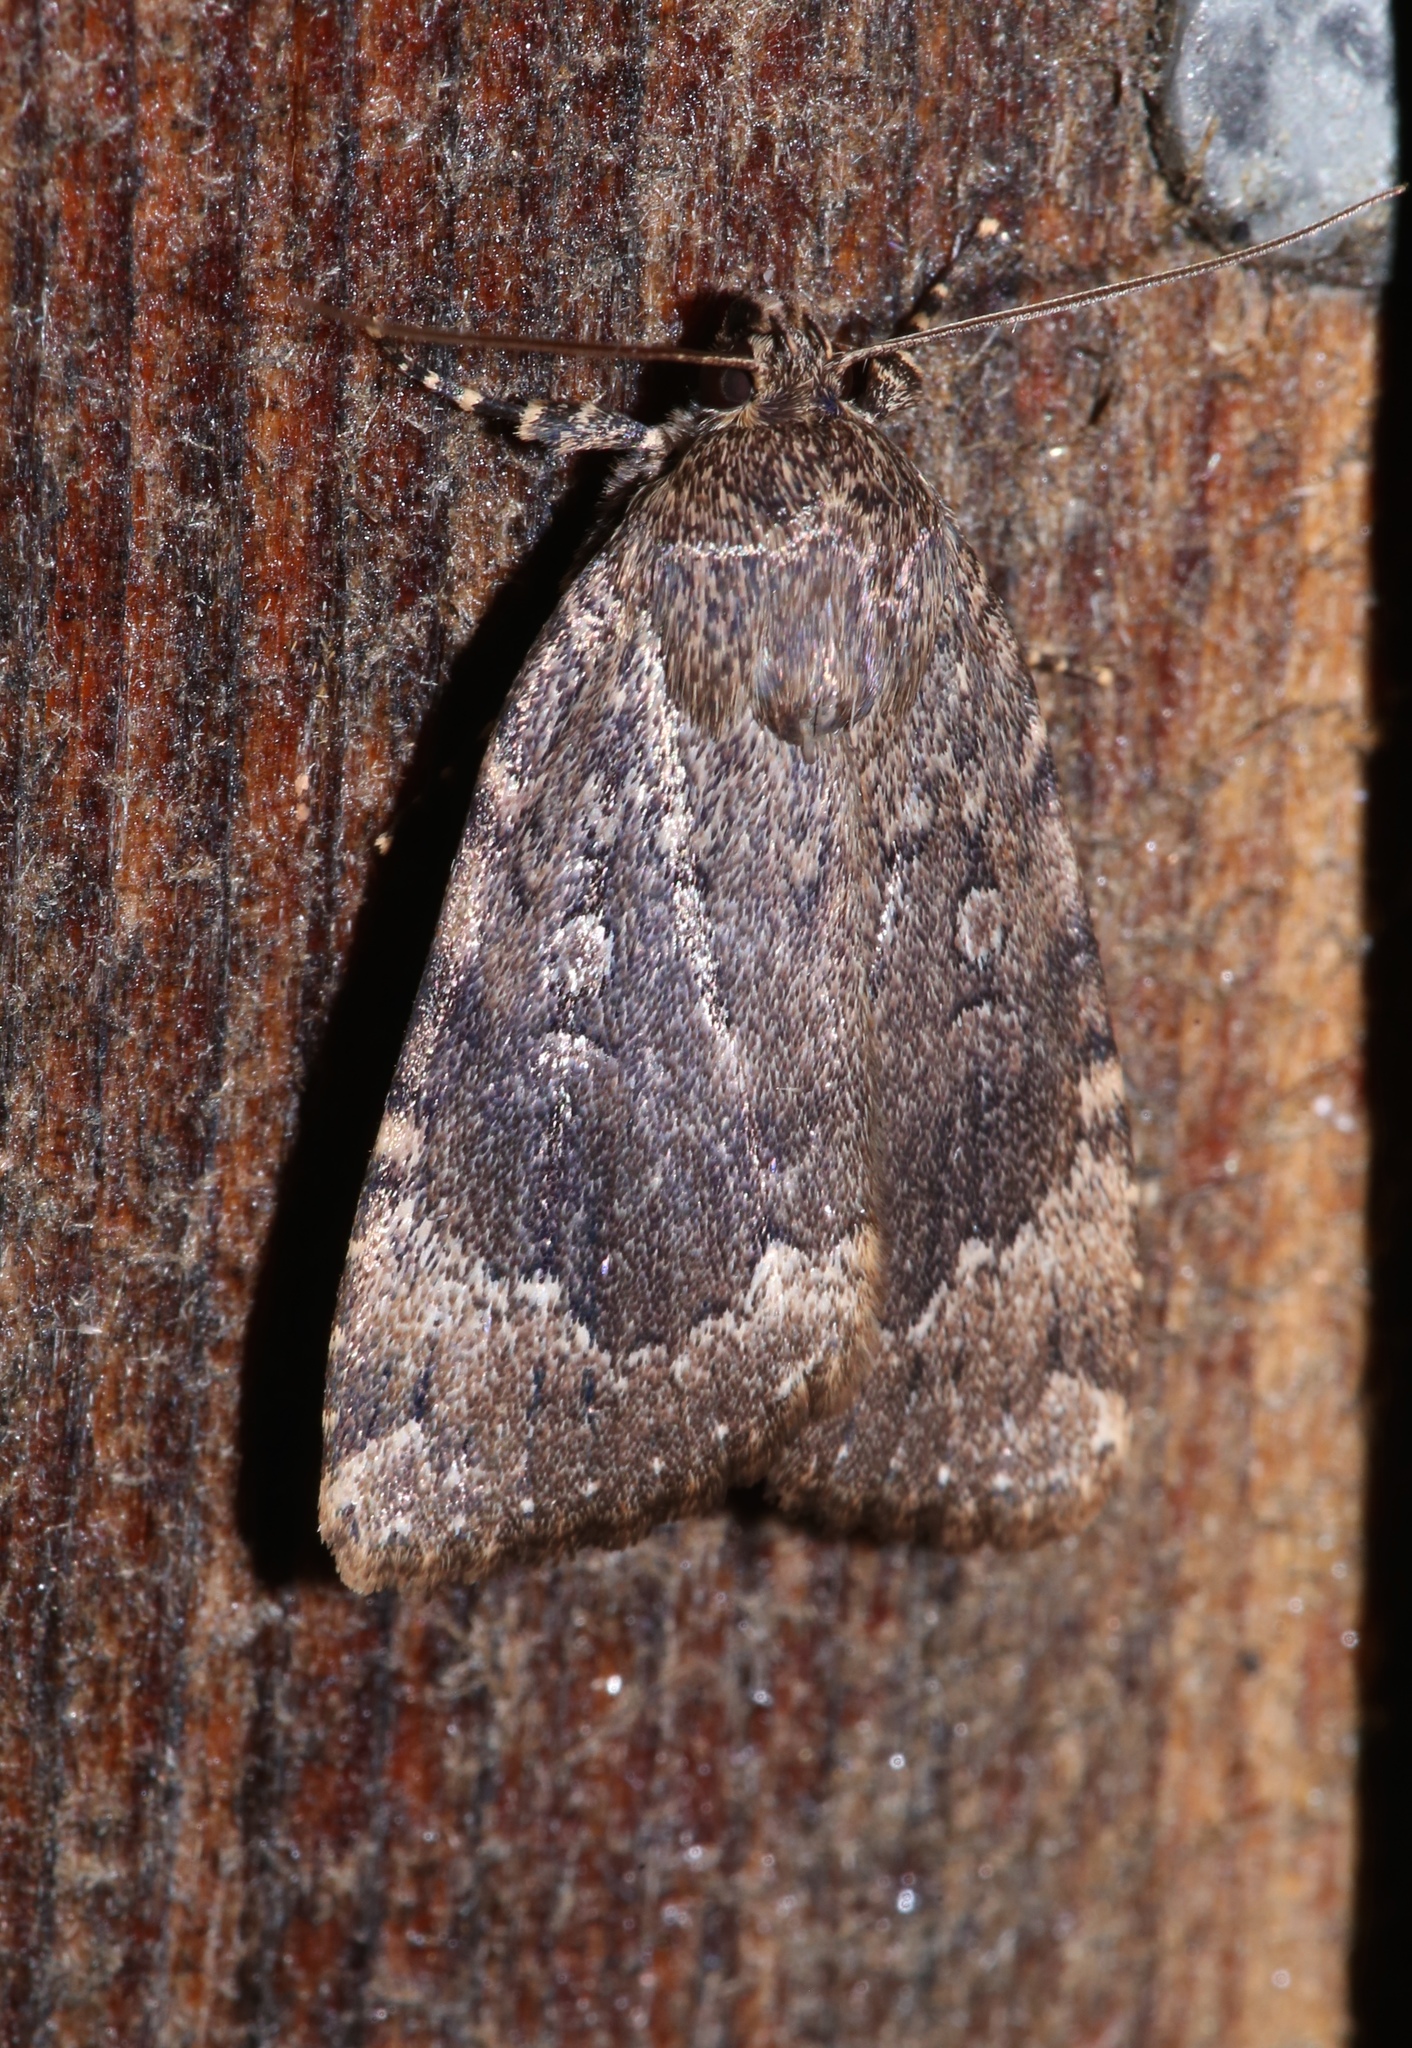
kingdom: Animalia
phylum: Arthropoda
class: Insecta
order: Lepidoptera
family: Noctuidae
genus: Amphipyra
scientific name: Amphipyra pyramidoides
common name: American copper underwing
